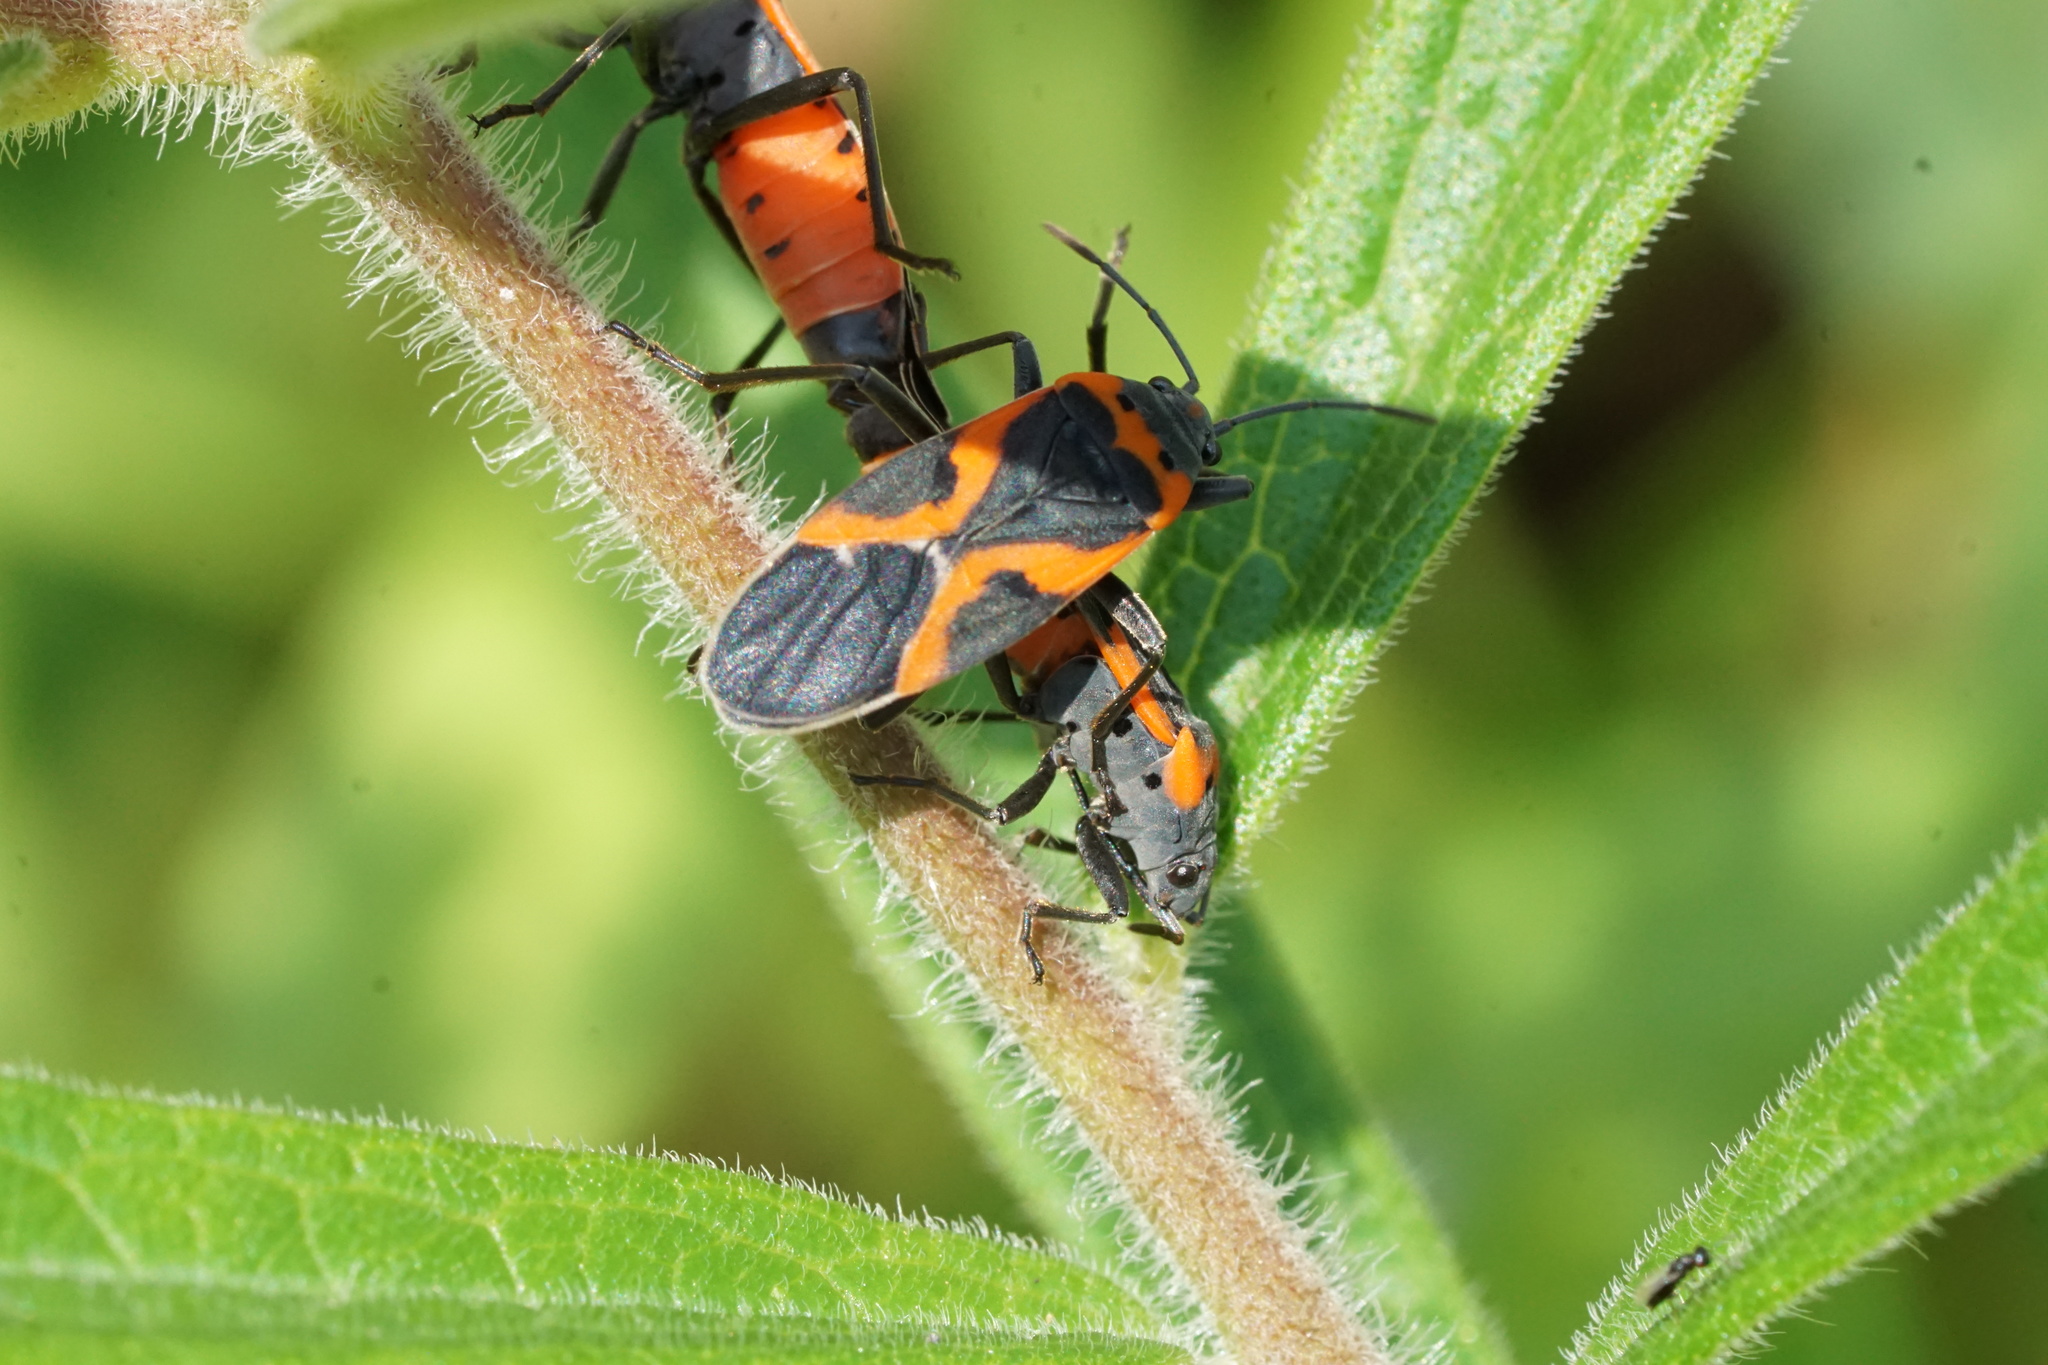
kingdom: Animalia
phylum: Arthropoda
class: Insecta
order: Hemiptera
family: Lygaeidae
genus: Lygaeus
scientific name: Lygaeus kalmii
